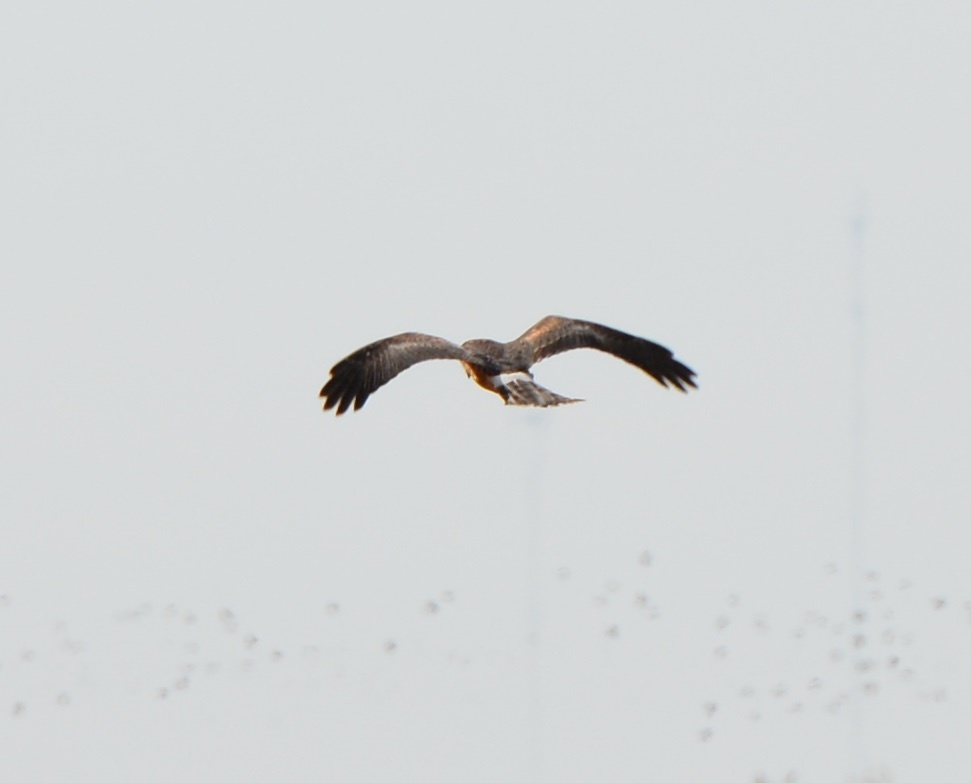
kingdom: Animalia
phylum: Chordata
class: Aves
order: Accipitriformes
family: Accipitridae
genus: Circus
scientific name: Circus cyaneus
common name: Hen harrier
